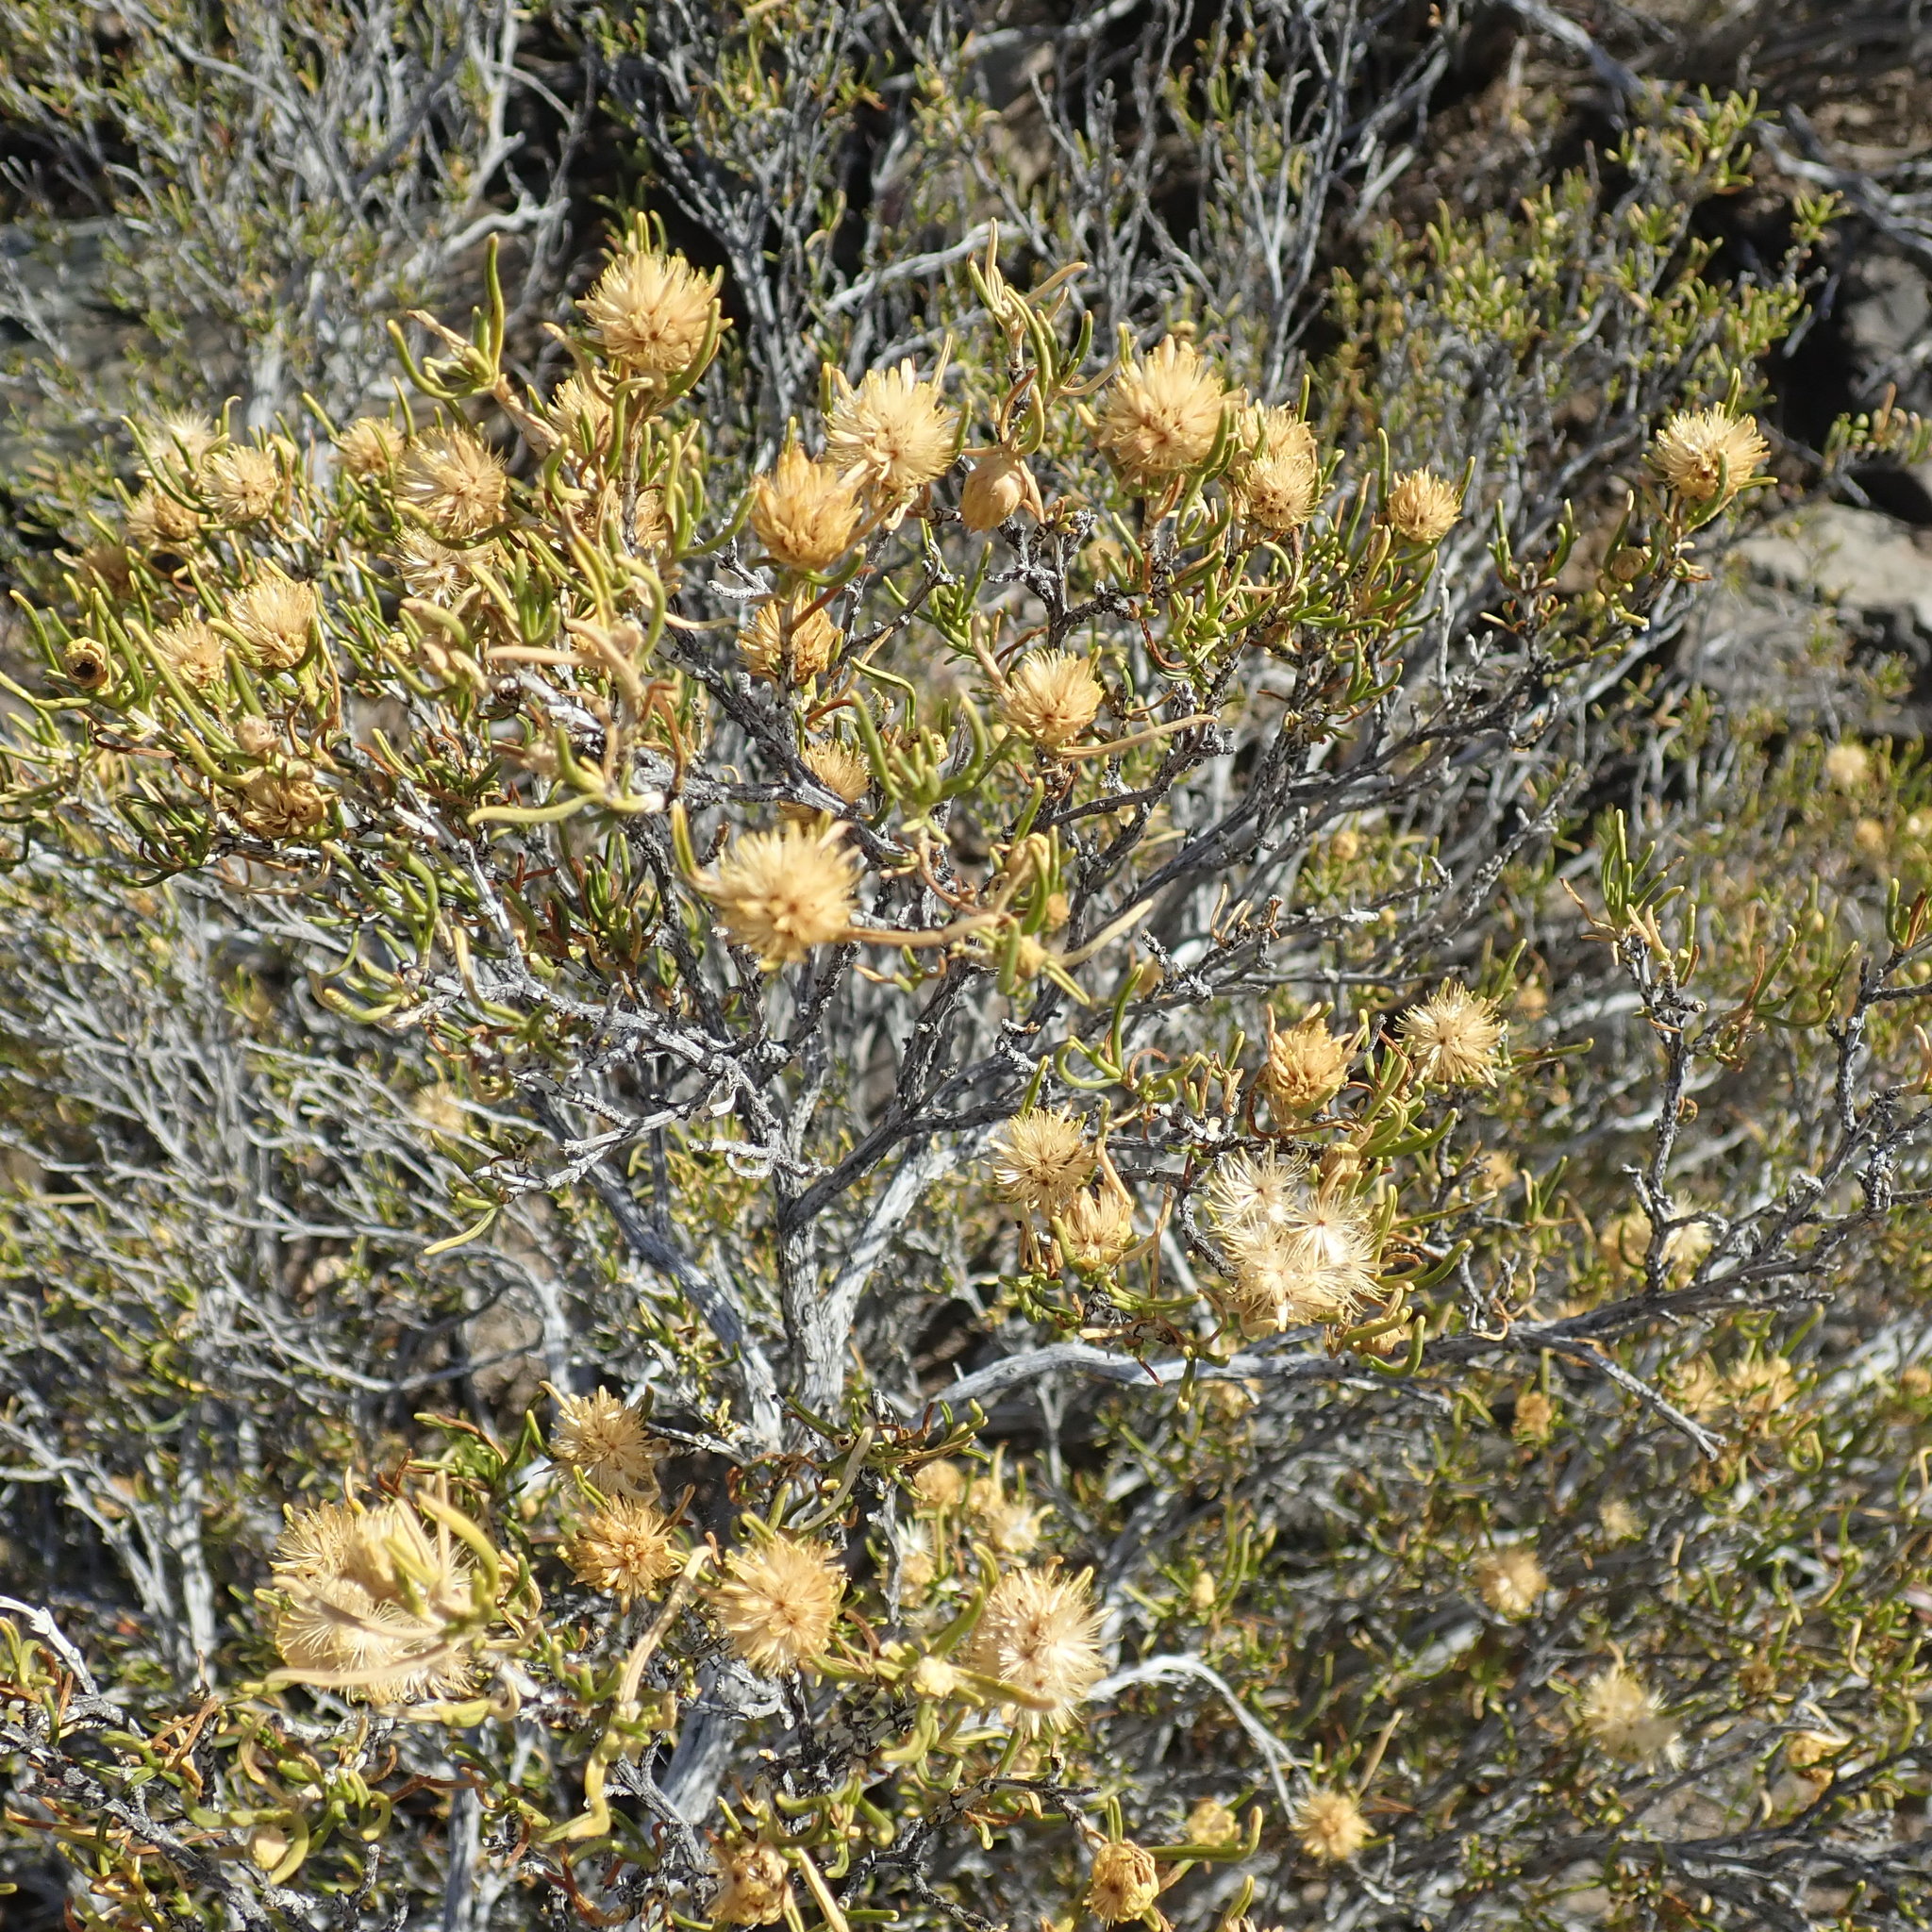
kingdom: Plantae
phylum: Tracheophyta
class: Magnoliopsida
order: Asterales
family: Asteraceae
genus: Pteronia
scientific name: Pteronia pallens
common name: Scholtzbush
